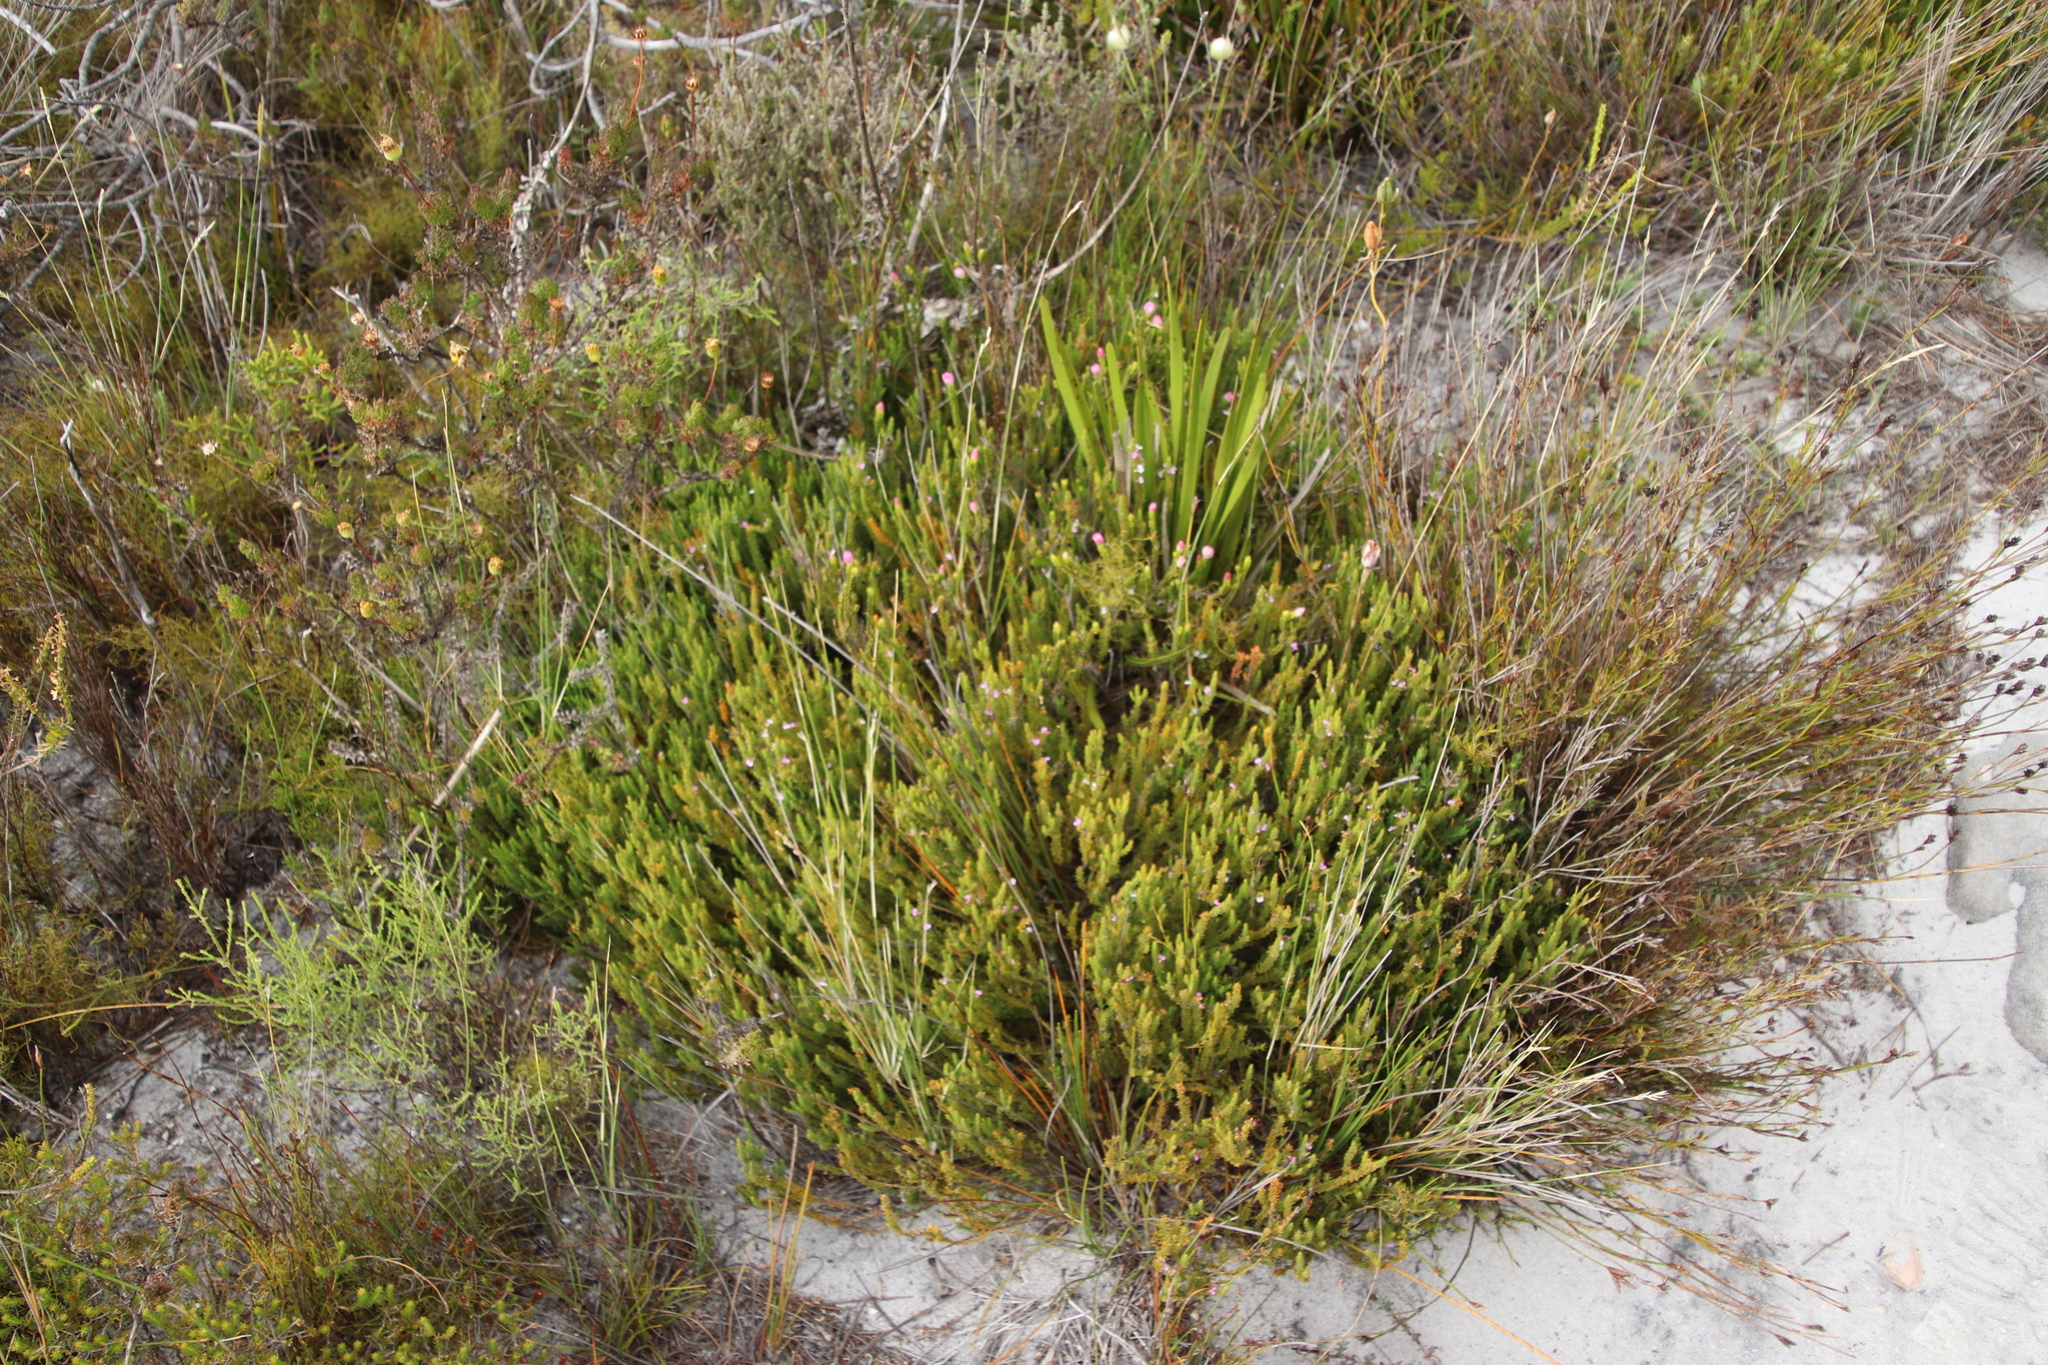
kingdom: Plantae
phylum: Tracheophyta
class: Magnoliopsida
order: Malvales
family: Thymelaeaceae
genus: Lachnaea
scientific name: Lachnaea grandiflora
